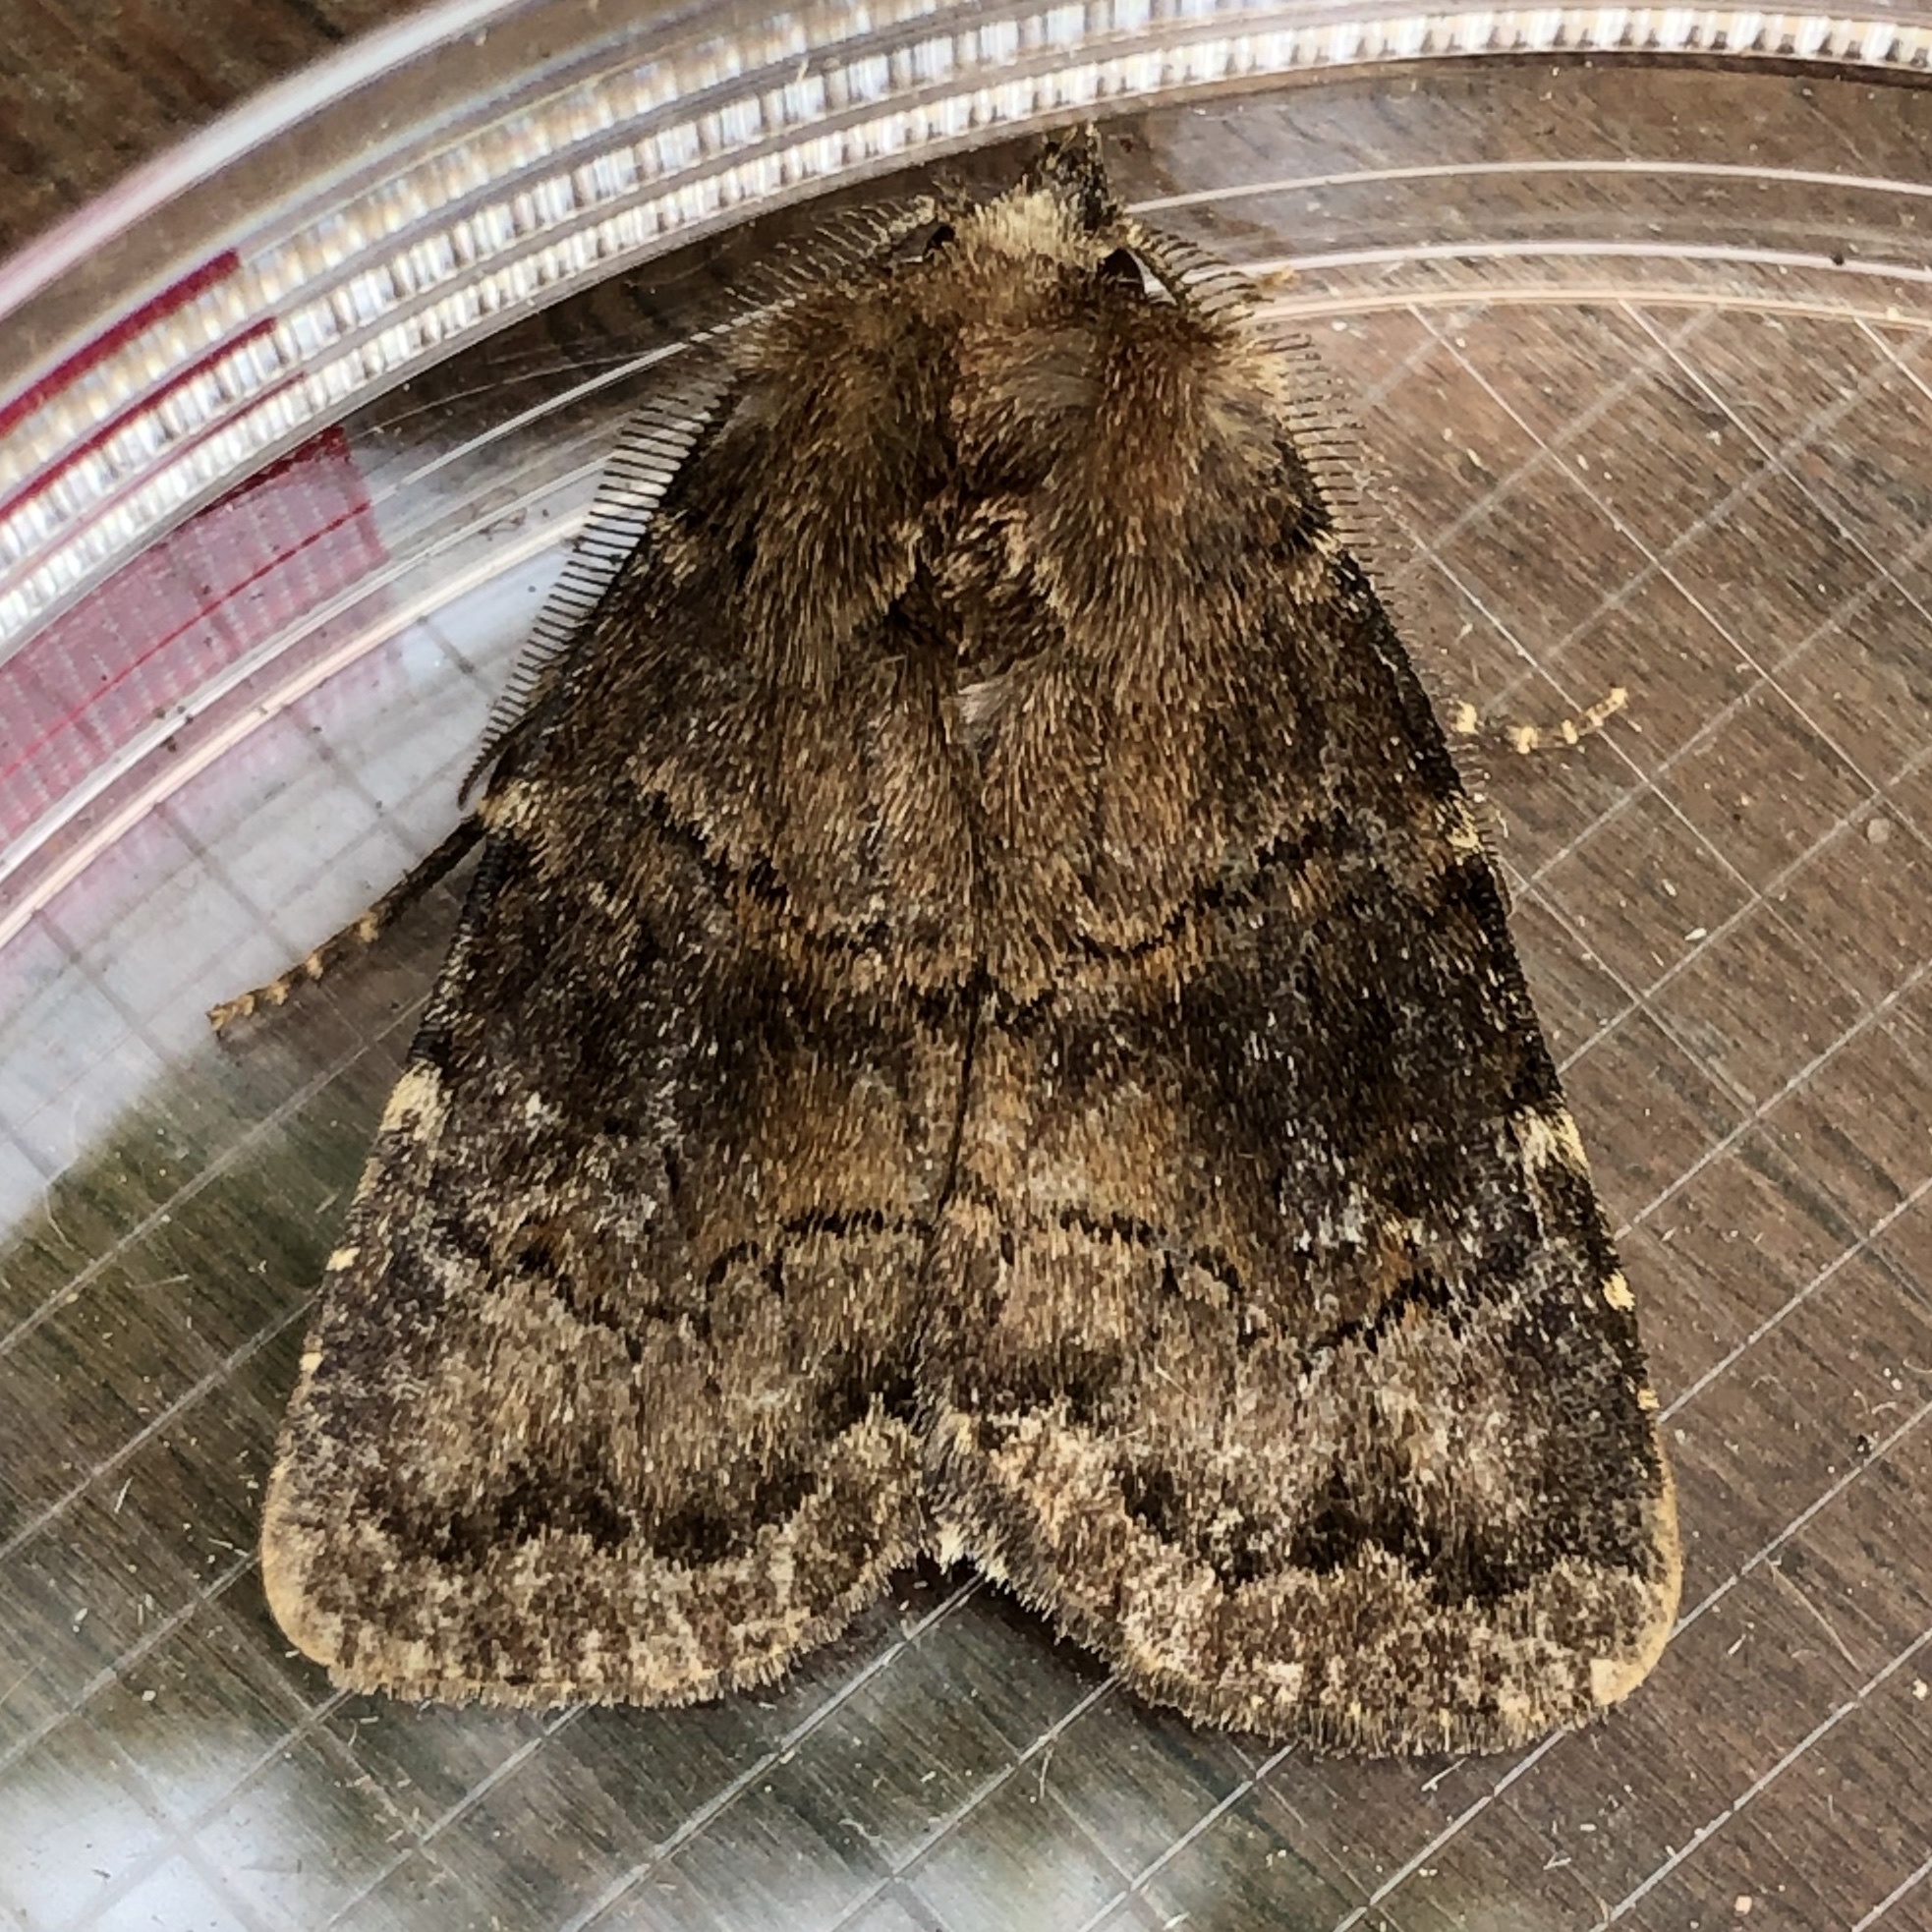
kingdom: Animalia
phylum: Arthropoda
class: Insecta
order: Lepidoptera
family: Noctuidae
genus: Charanyca
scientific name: Charanyca ferruginea
